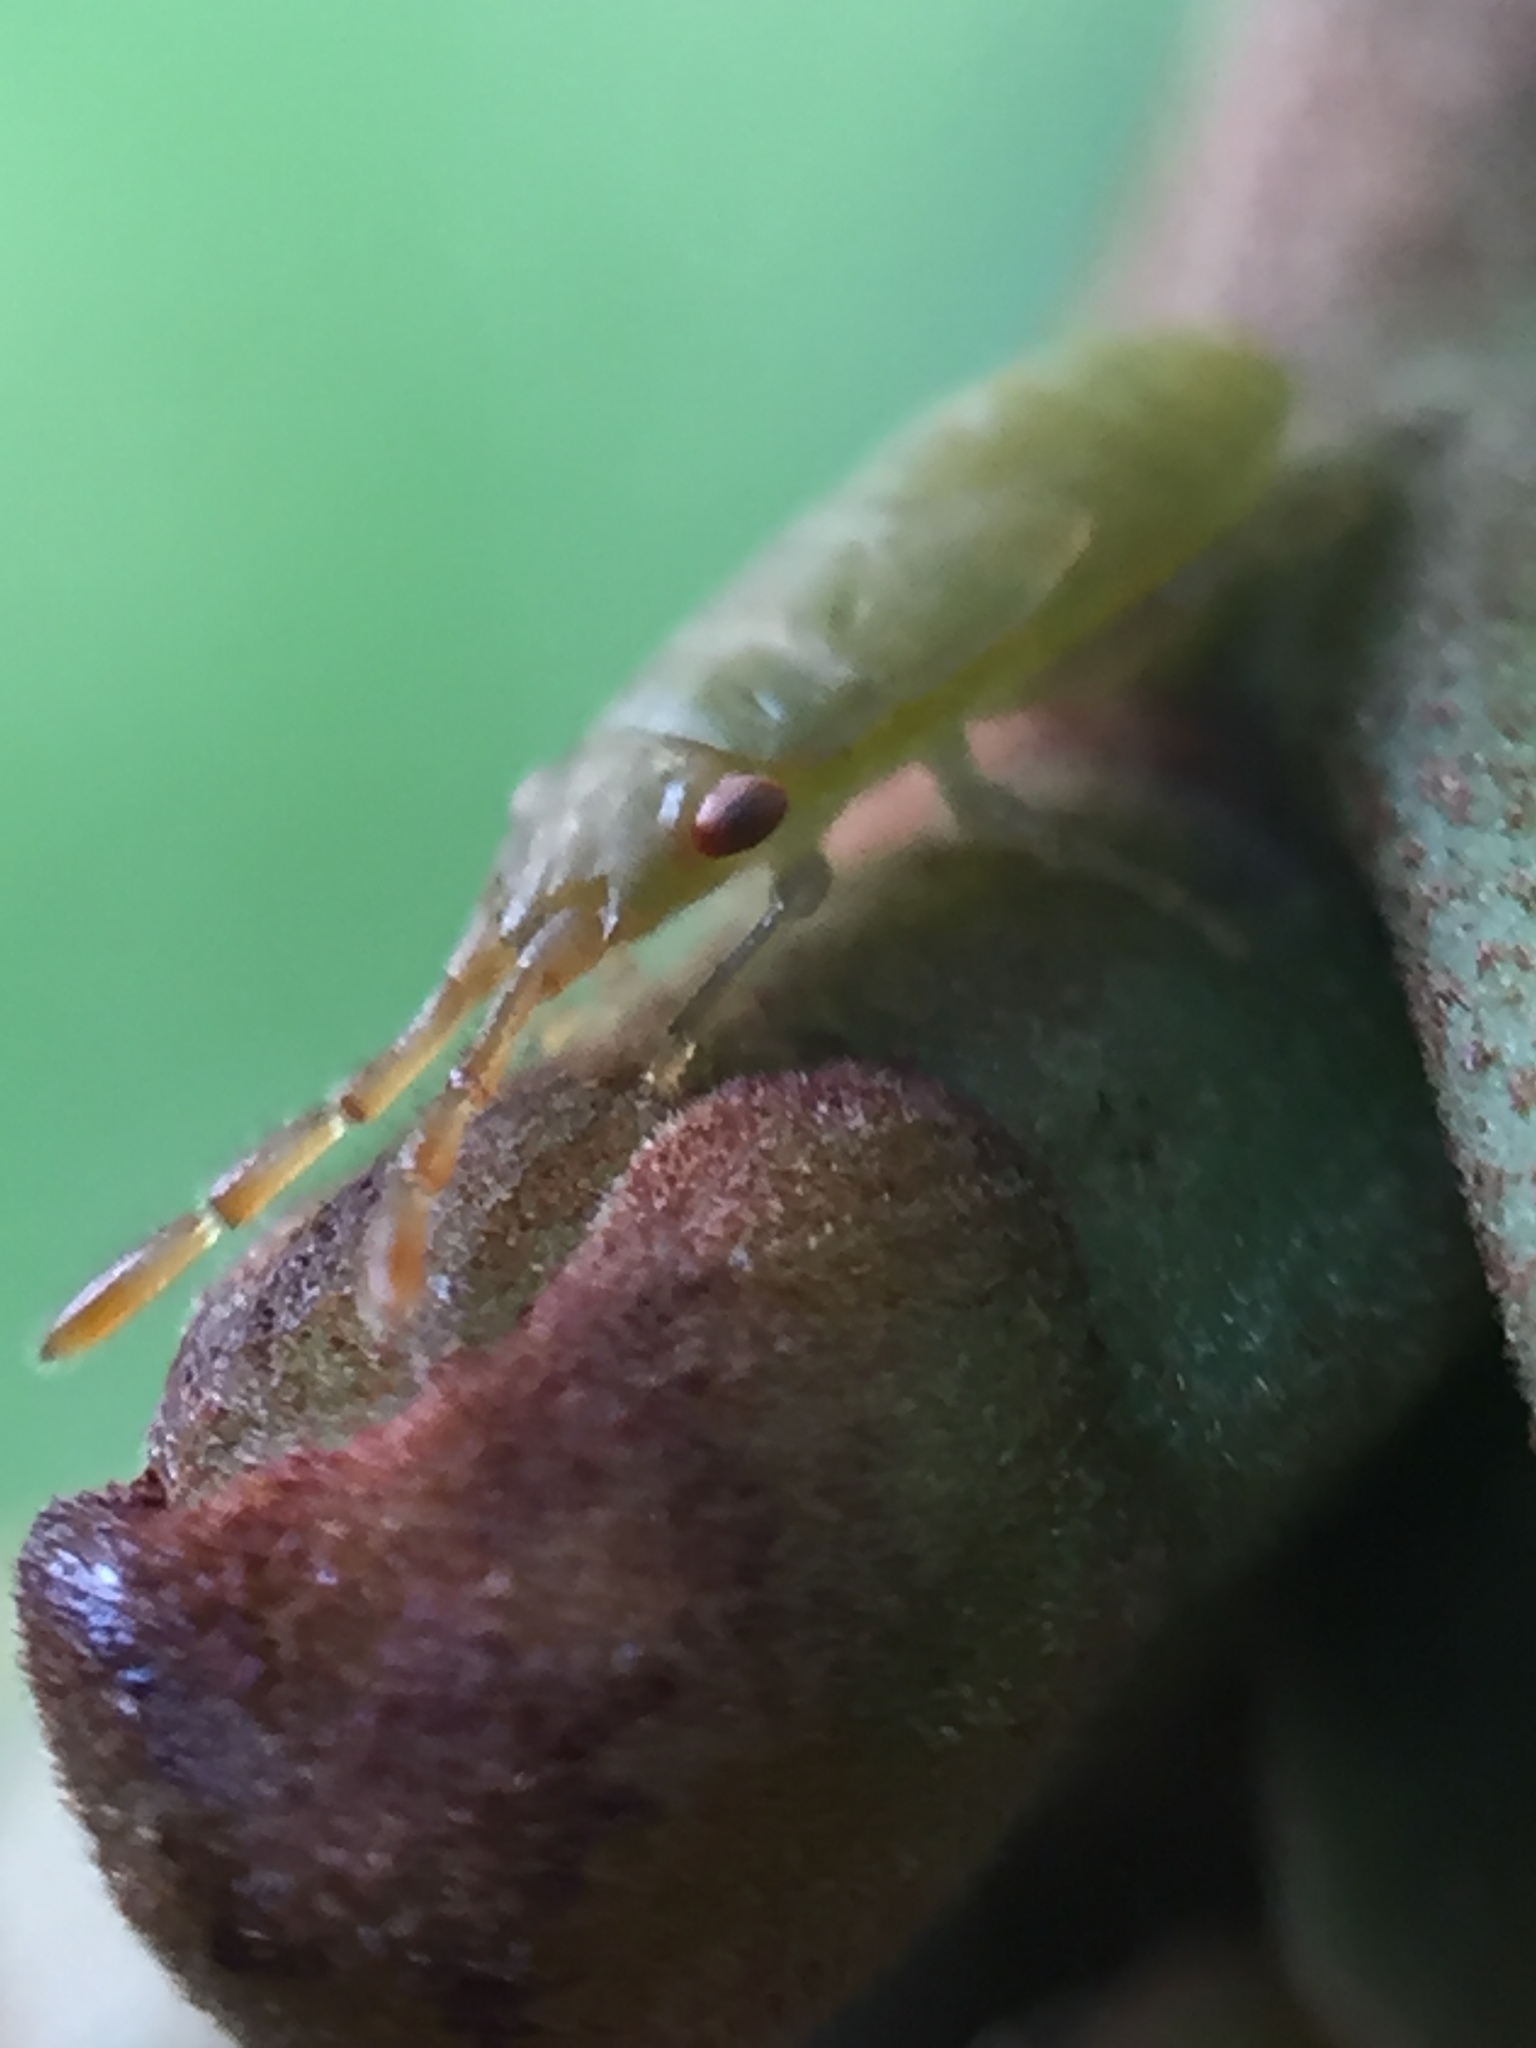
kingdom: Animalia
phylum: Arthropoda
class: Insecta
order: Hemiptera
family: Meschiidae
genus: Meschia
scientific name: Meschia barrowensis
